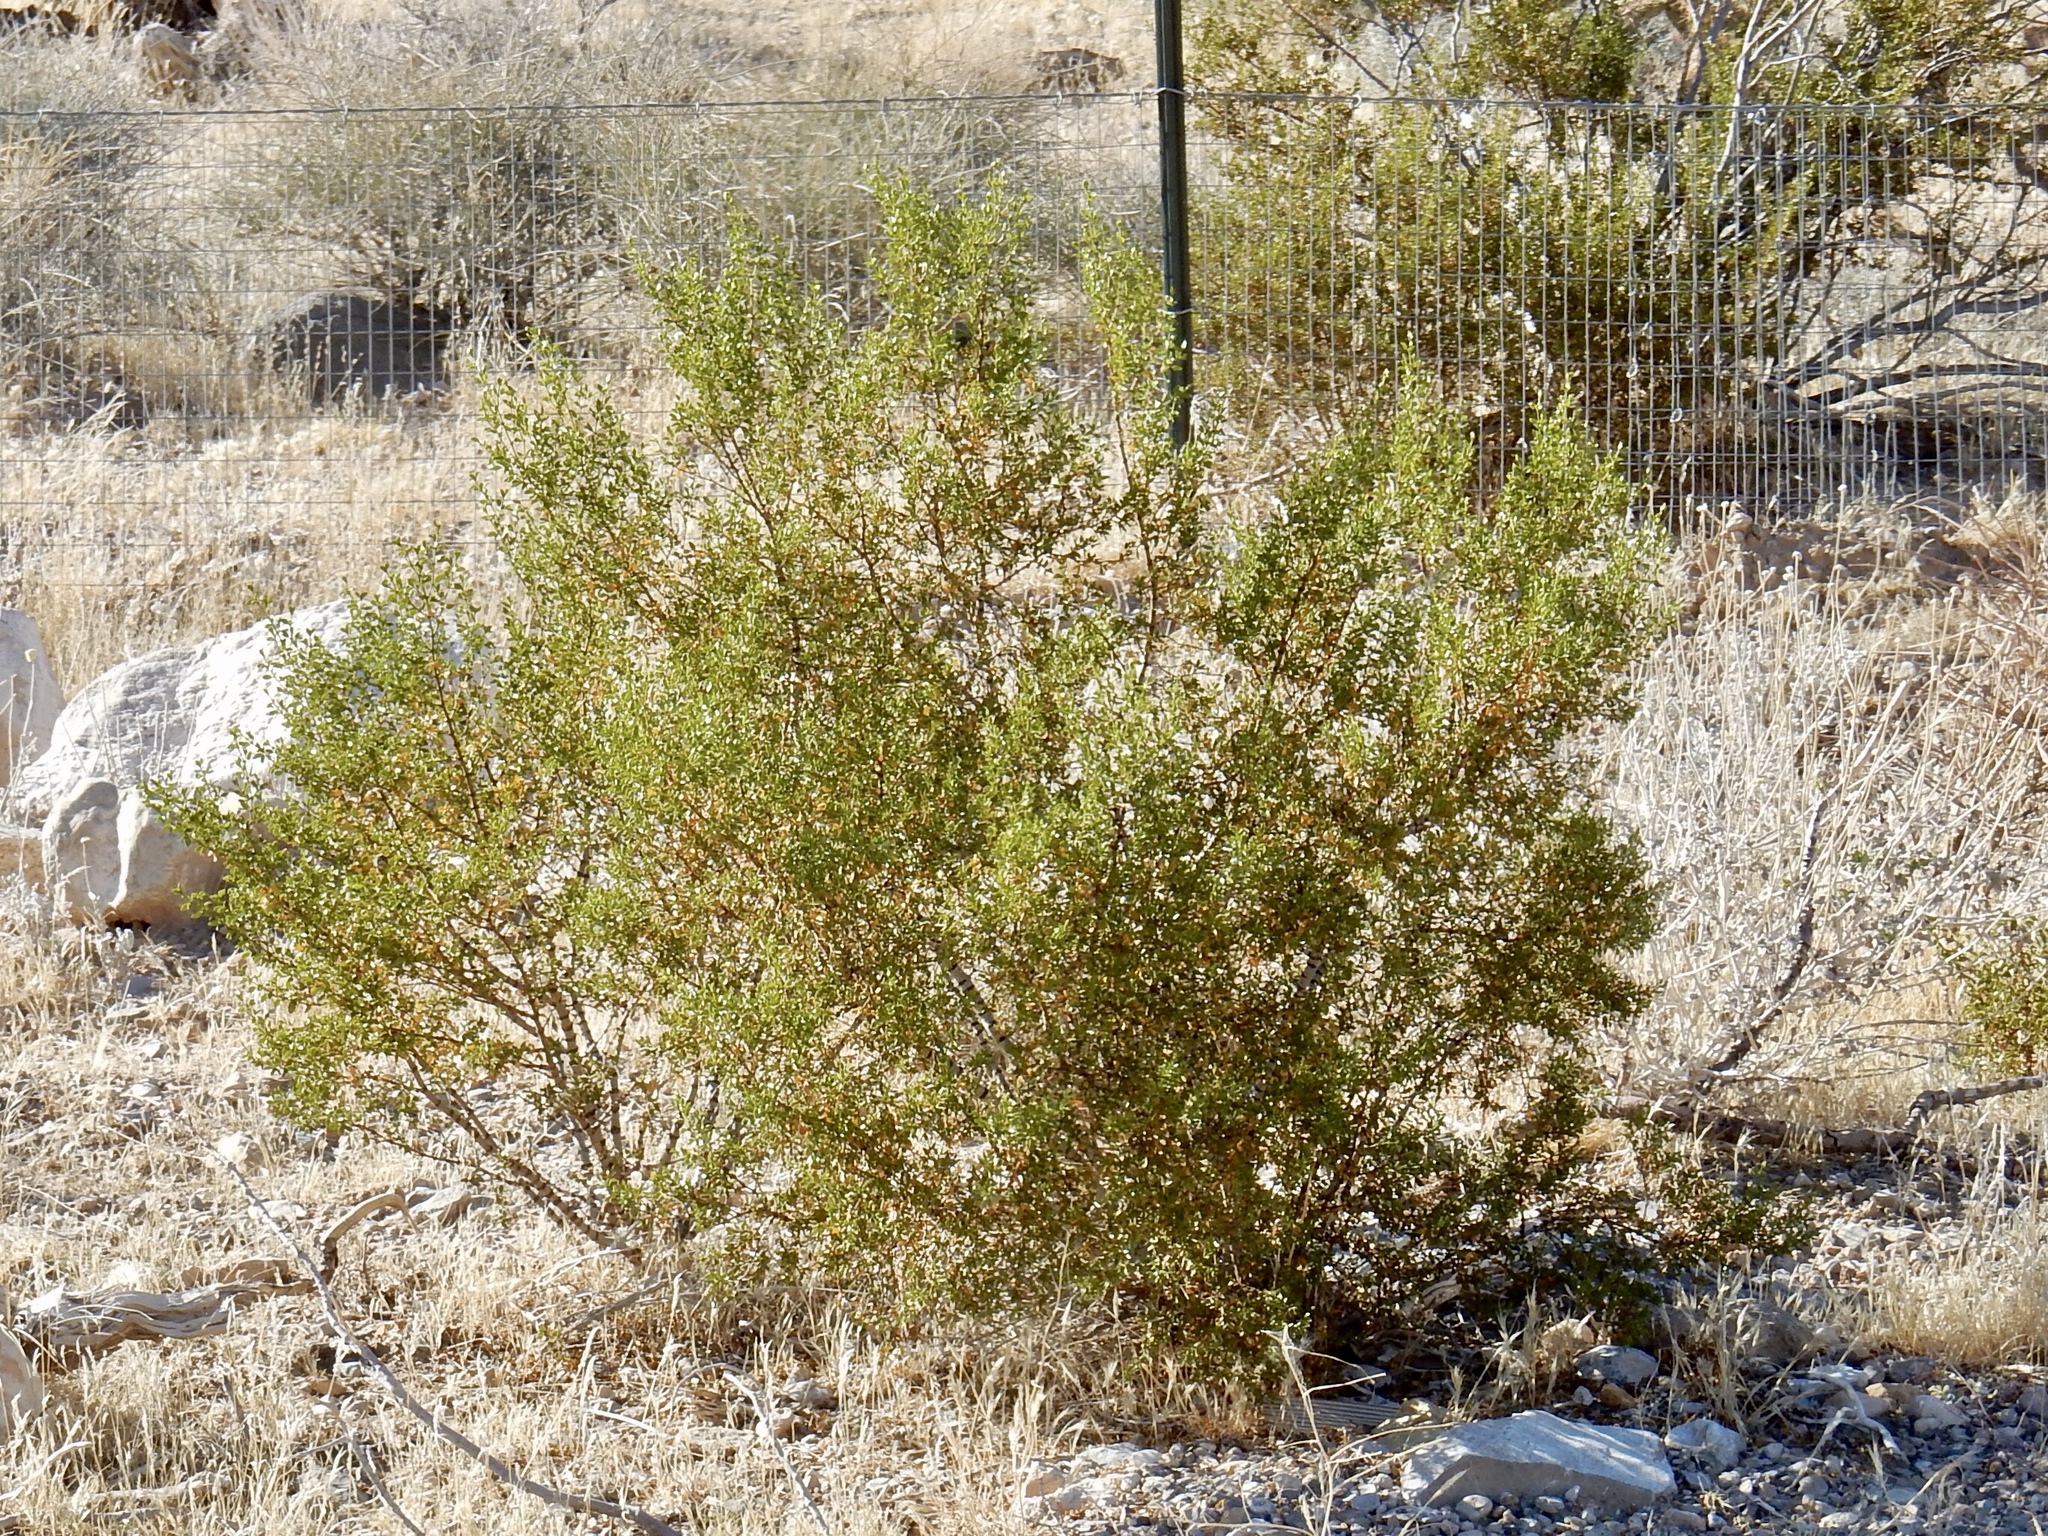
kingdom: Plantae
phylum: Tracheophyta
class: Magnoliopsida
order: Zygophyllales
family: Zygophyllaceae
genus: Larrea
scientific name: Larrea tridentata
